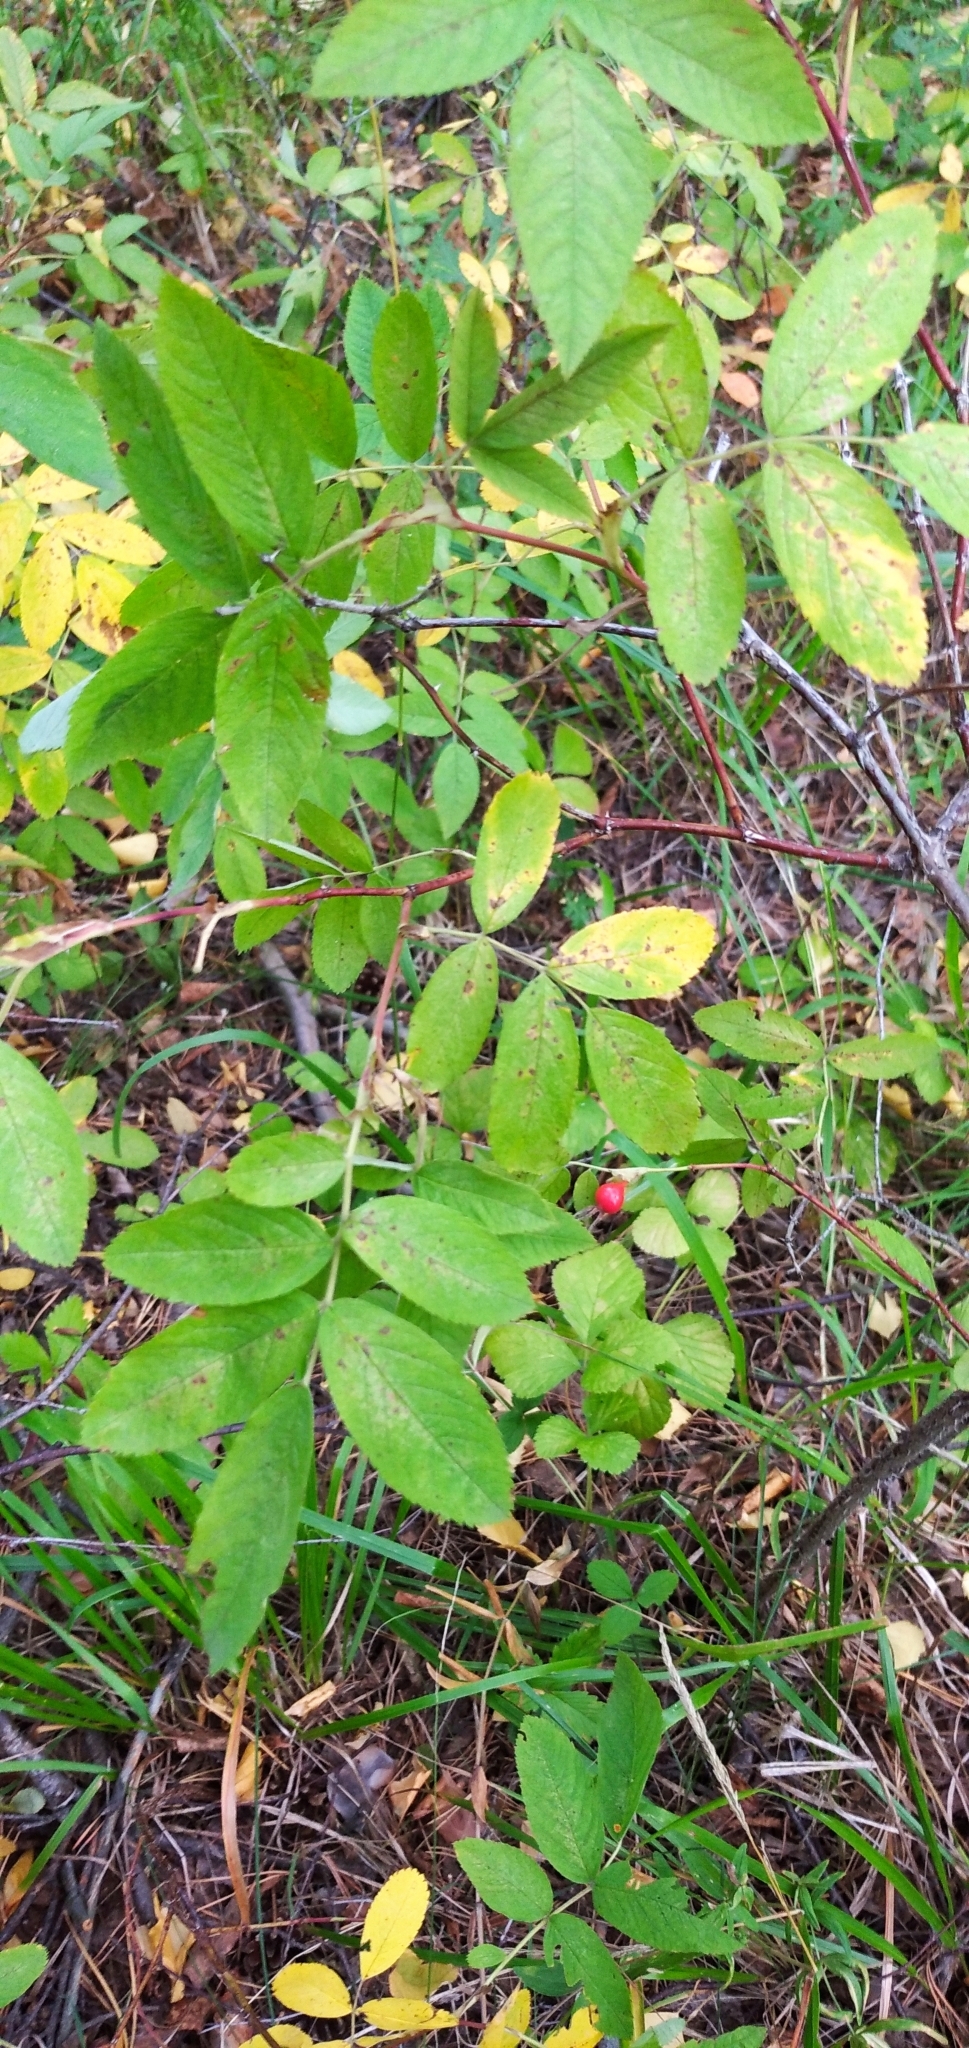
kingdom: Plantae
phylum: Tracheophyta
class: Magnoliopsida
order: Rosales
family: Rosaceae
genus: Rosa
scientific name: Rosa majalis
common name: Cinnamon rose
